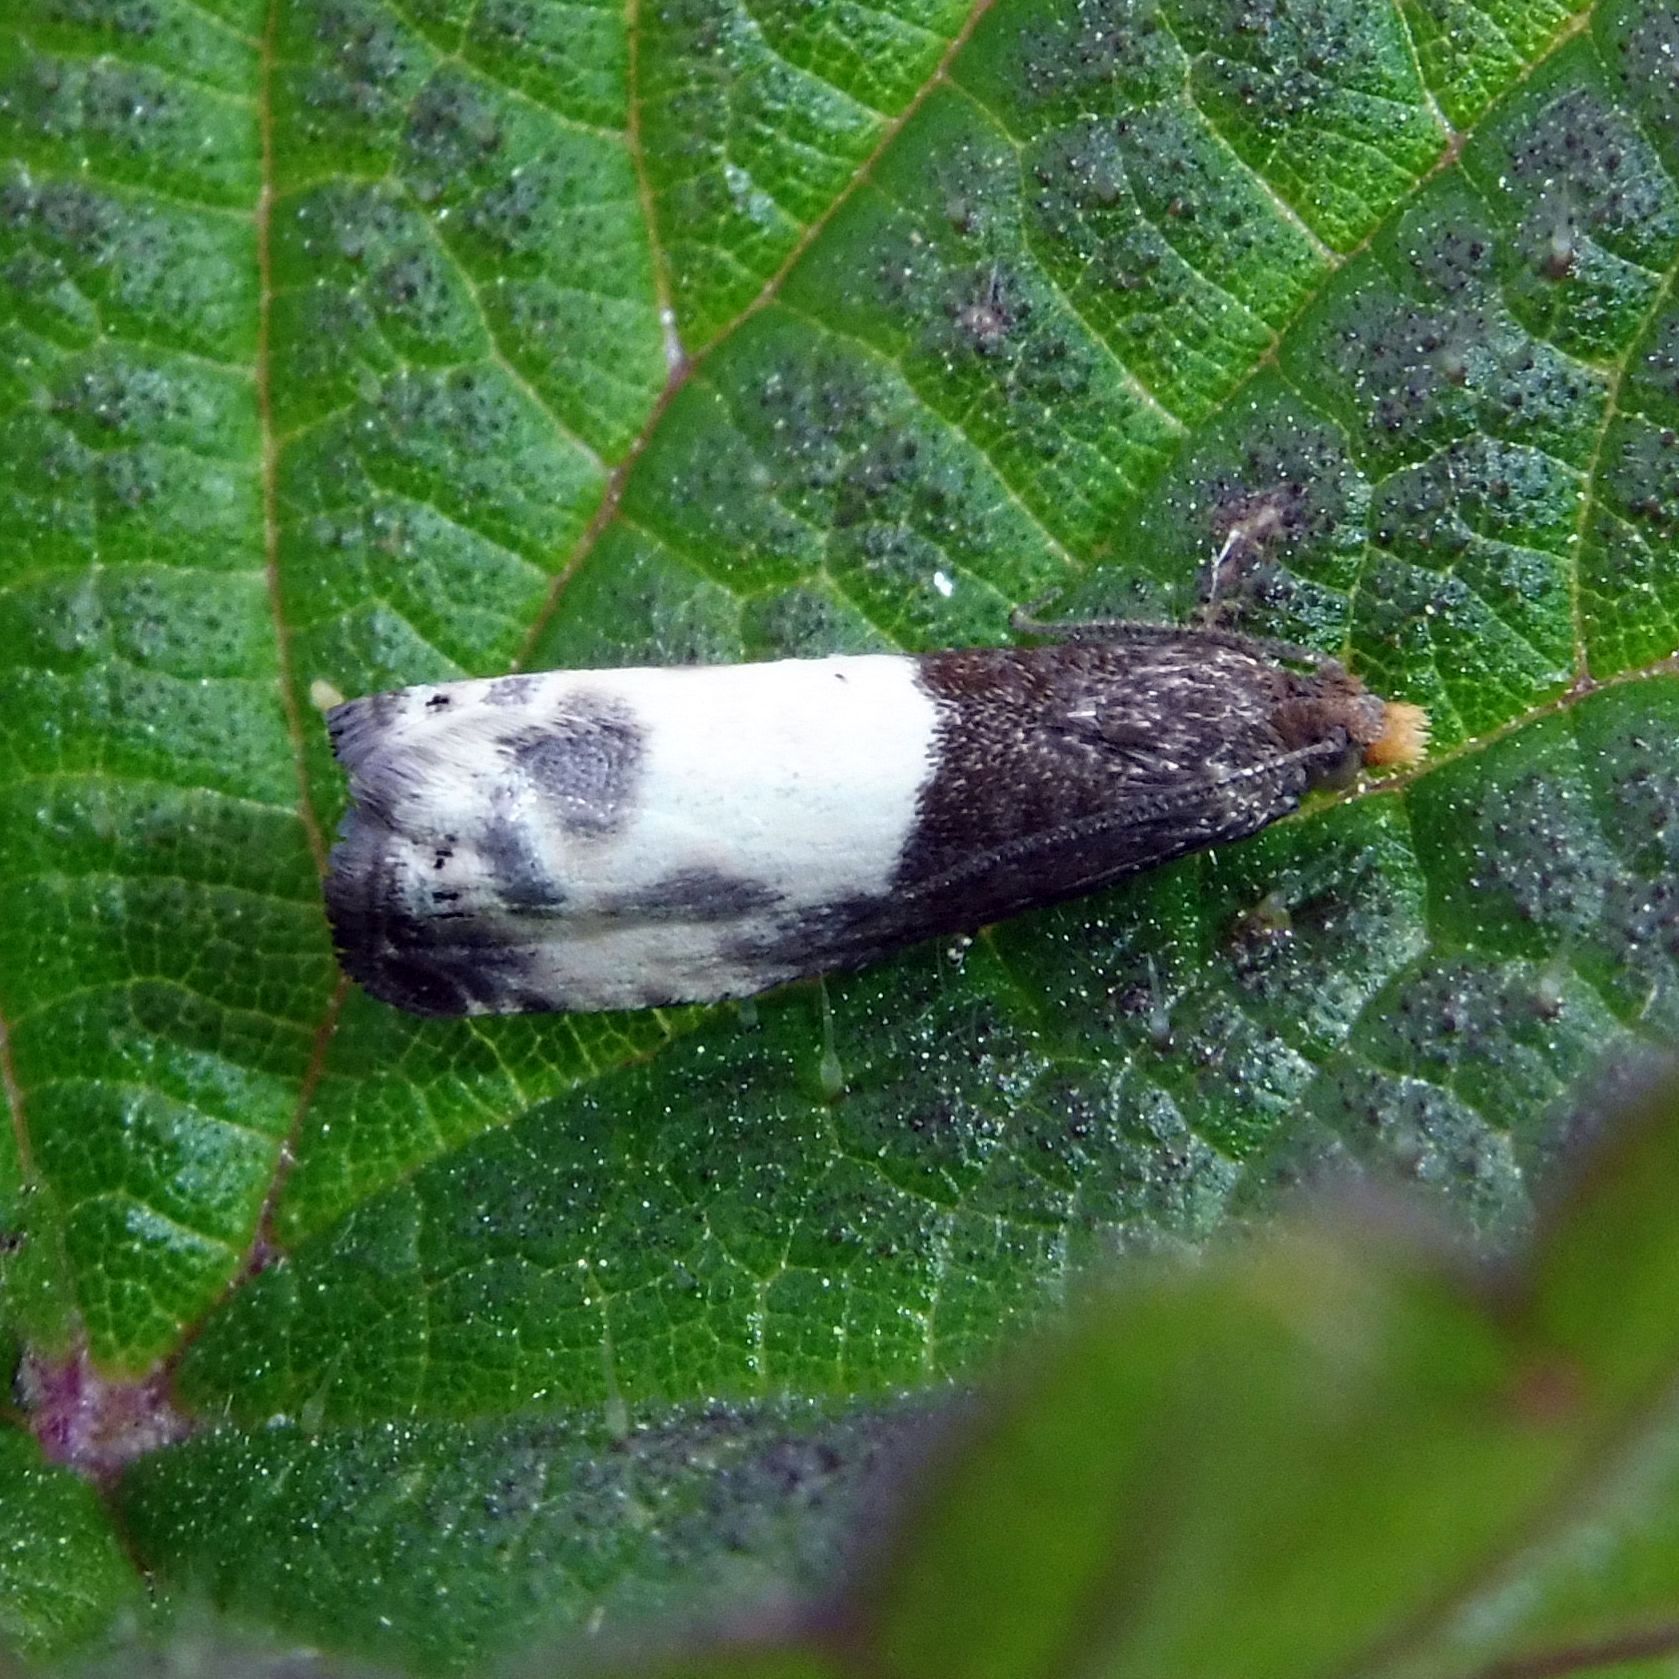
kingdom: Animalia
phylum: Arthropoda
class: Insecta
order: Lepidoptera
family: Tortricidae
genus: Notocelia
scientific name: Notocelia cynosbatella
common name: Yellow-faced bell moth
